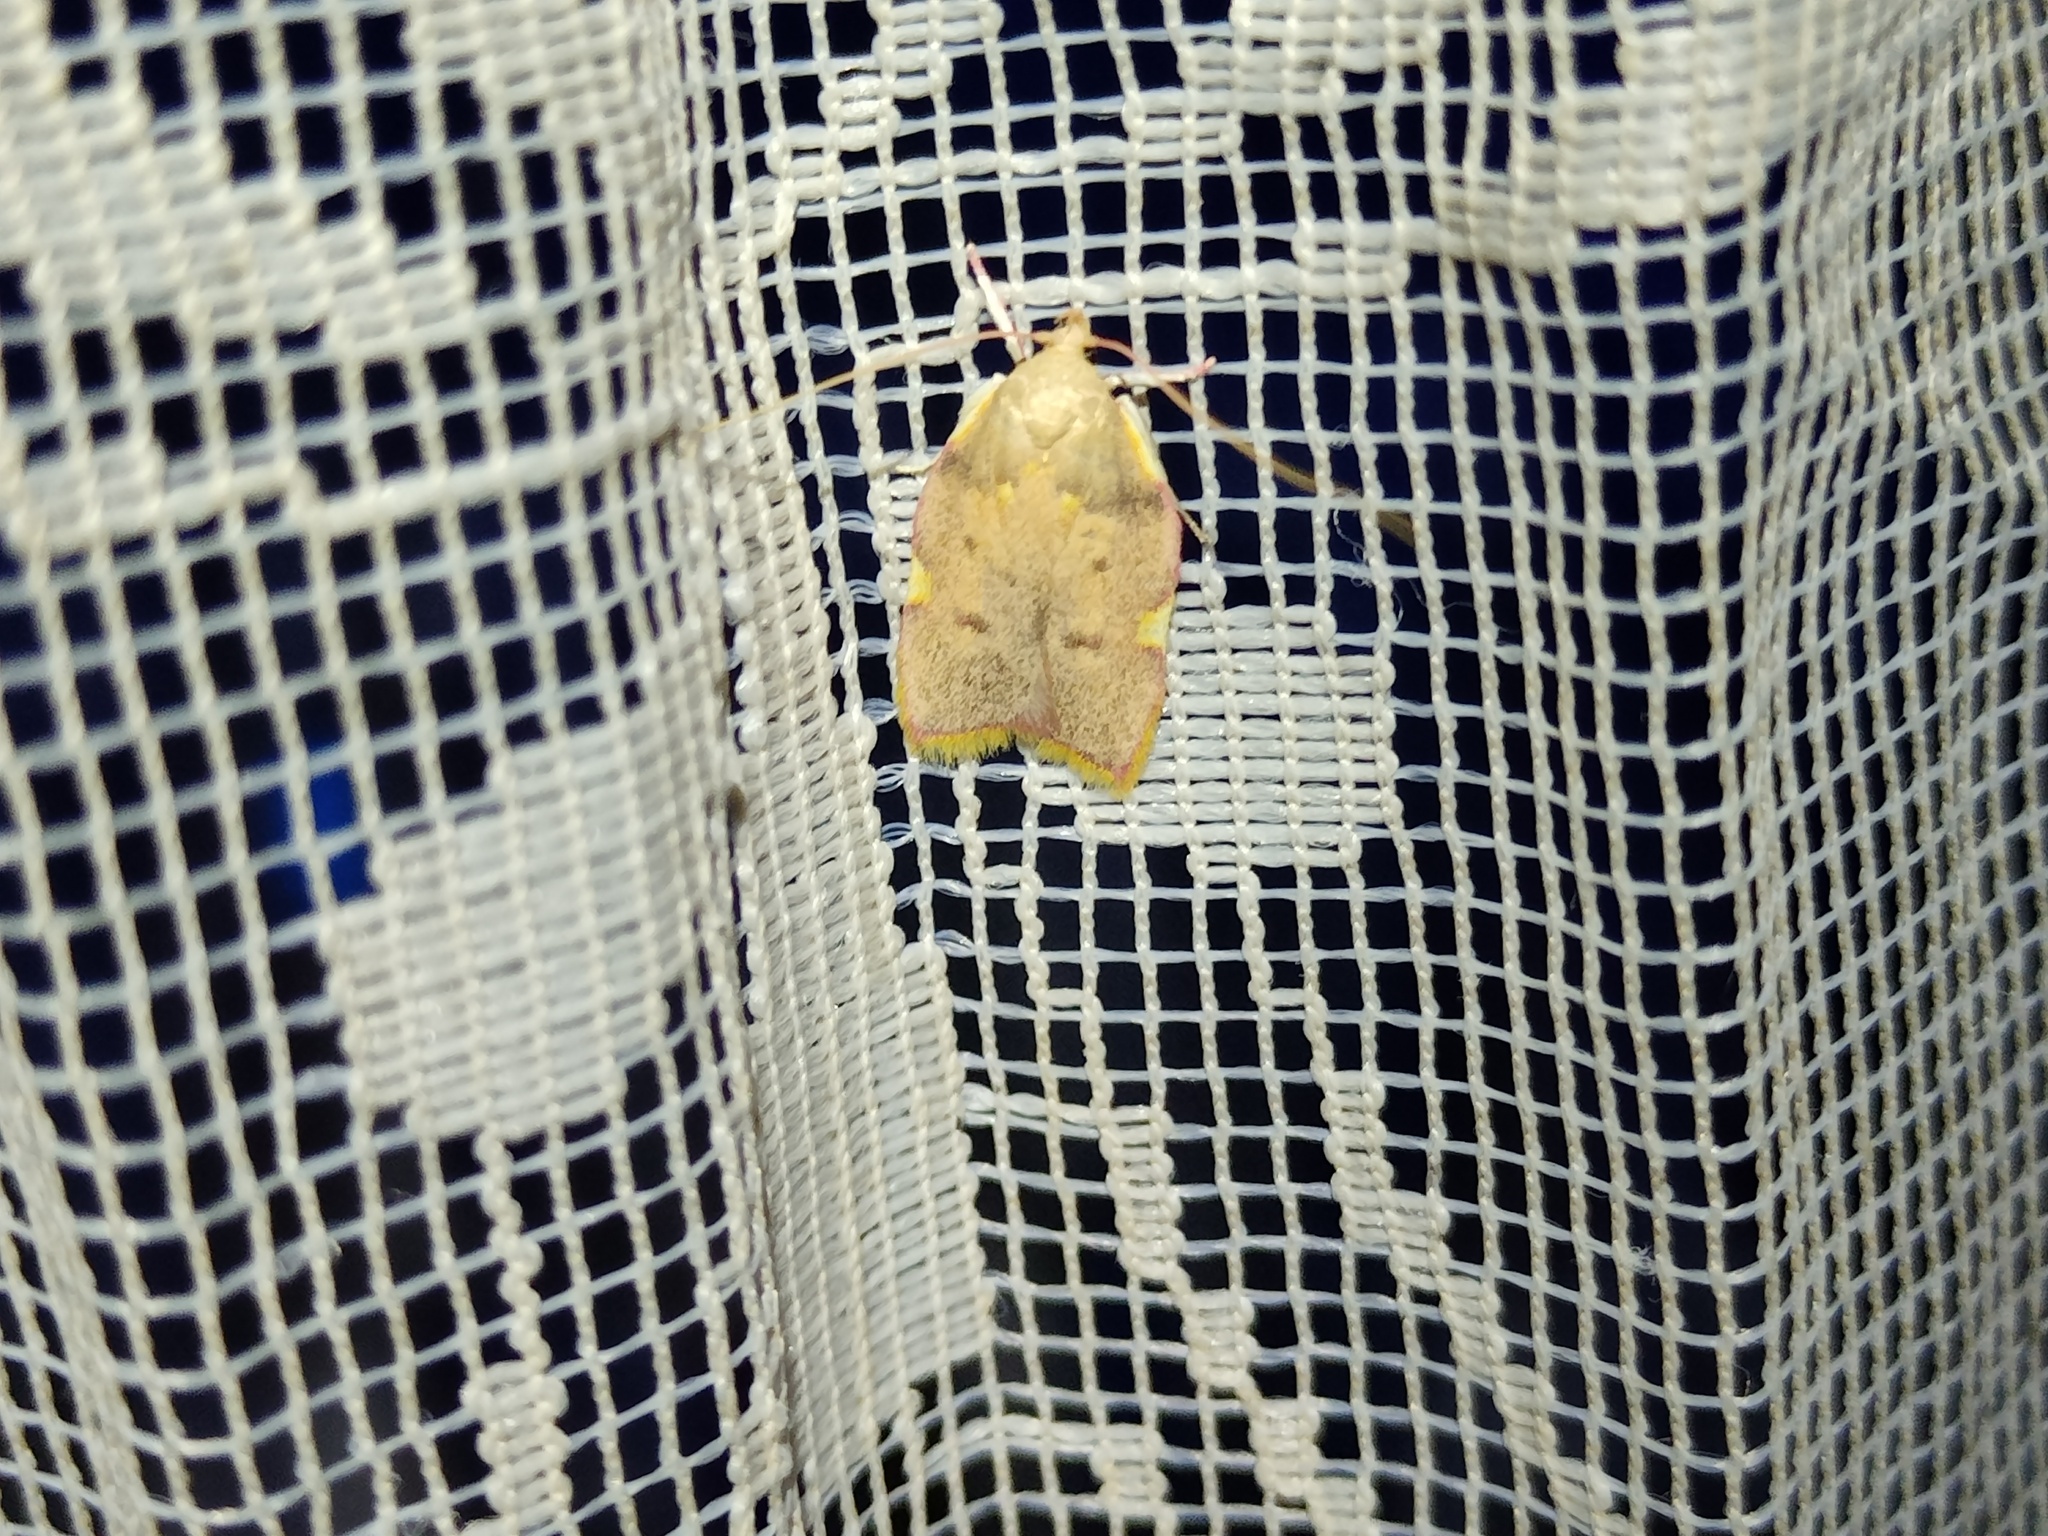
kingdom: Animalia
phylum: Arthropoda
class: Insecta
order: Lepidoptera
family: Peleopodidae
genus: Carcina
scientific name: Carcina quercana
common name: Moth
